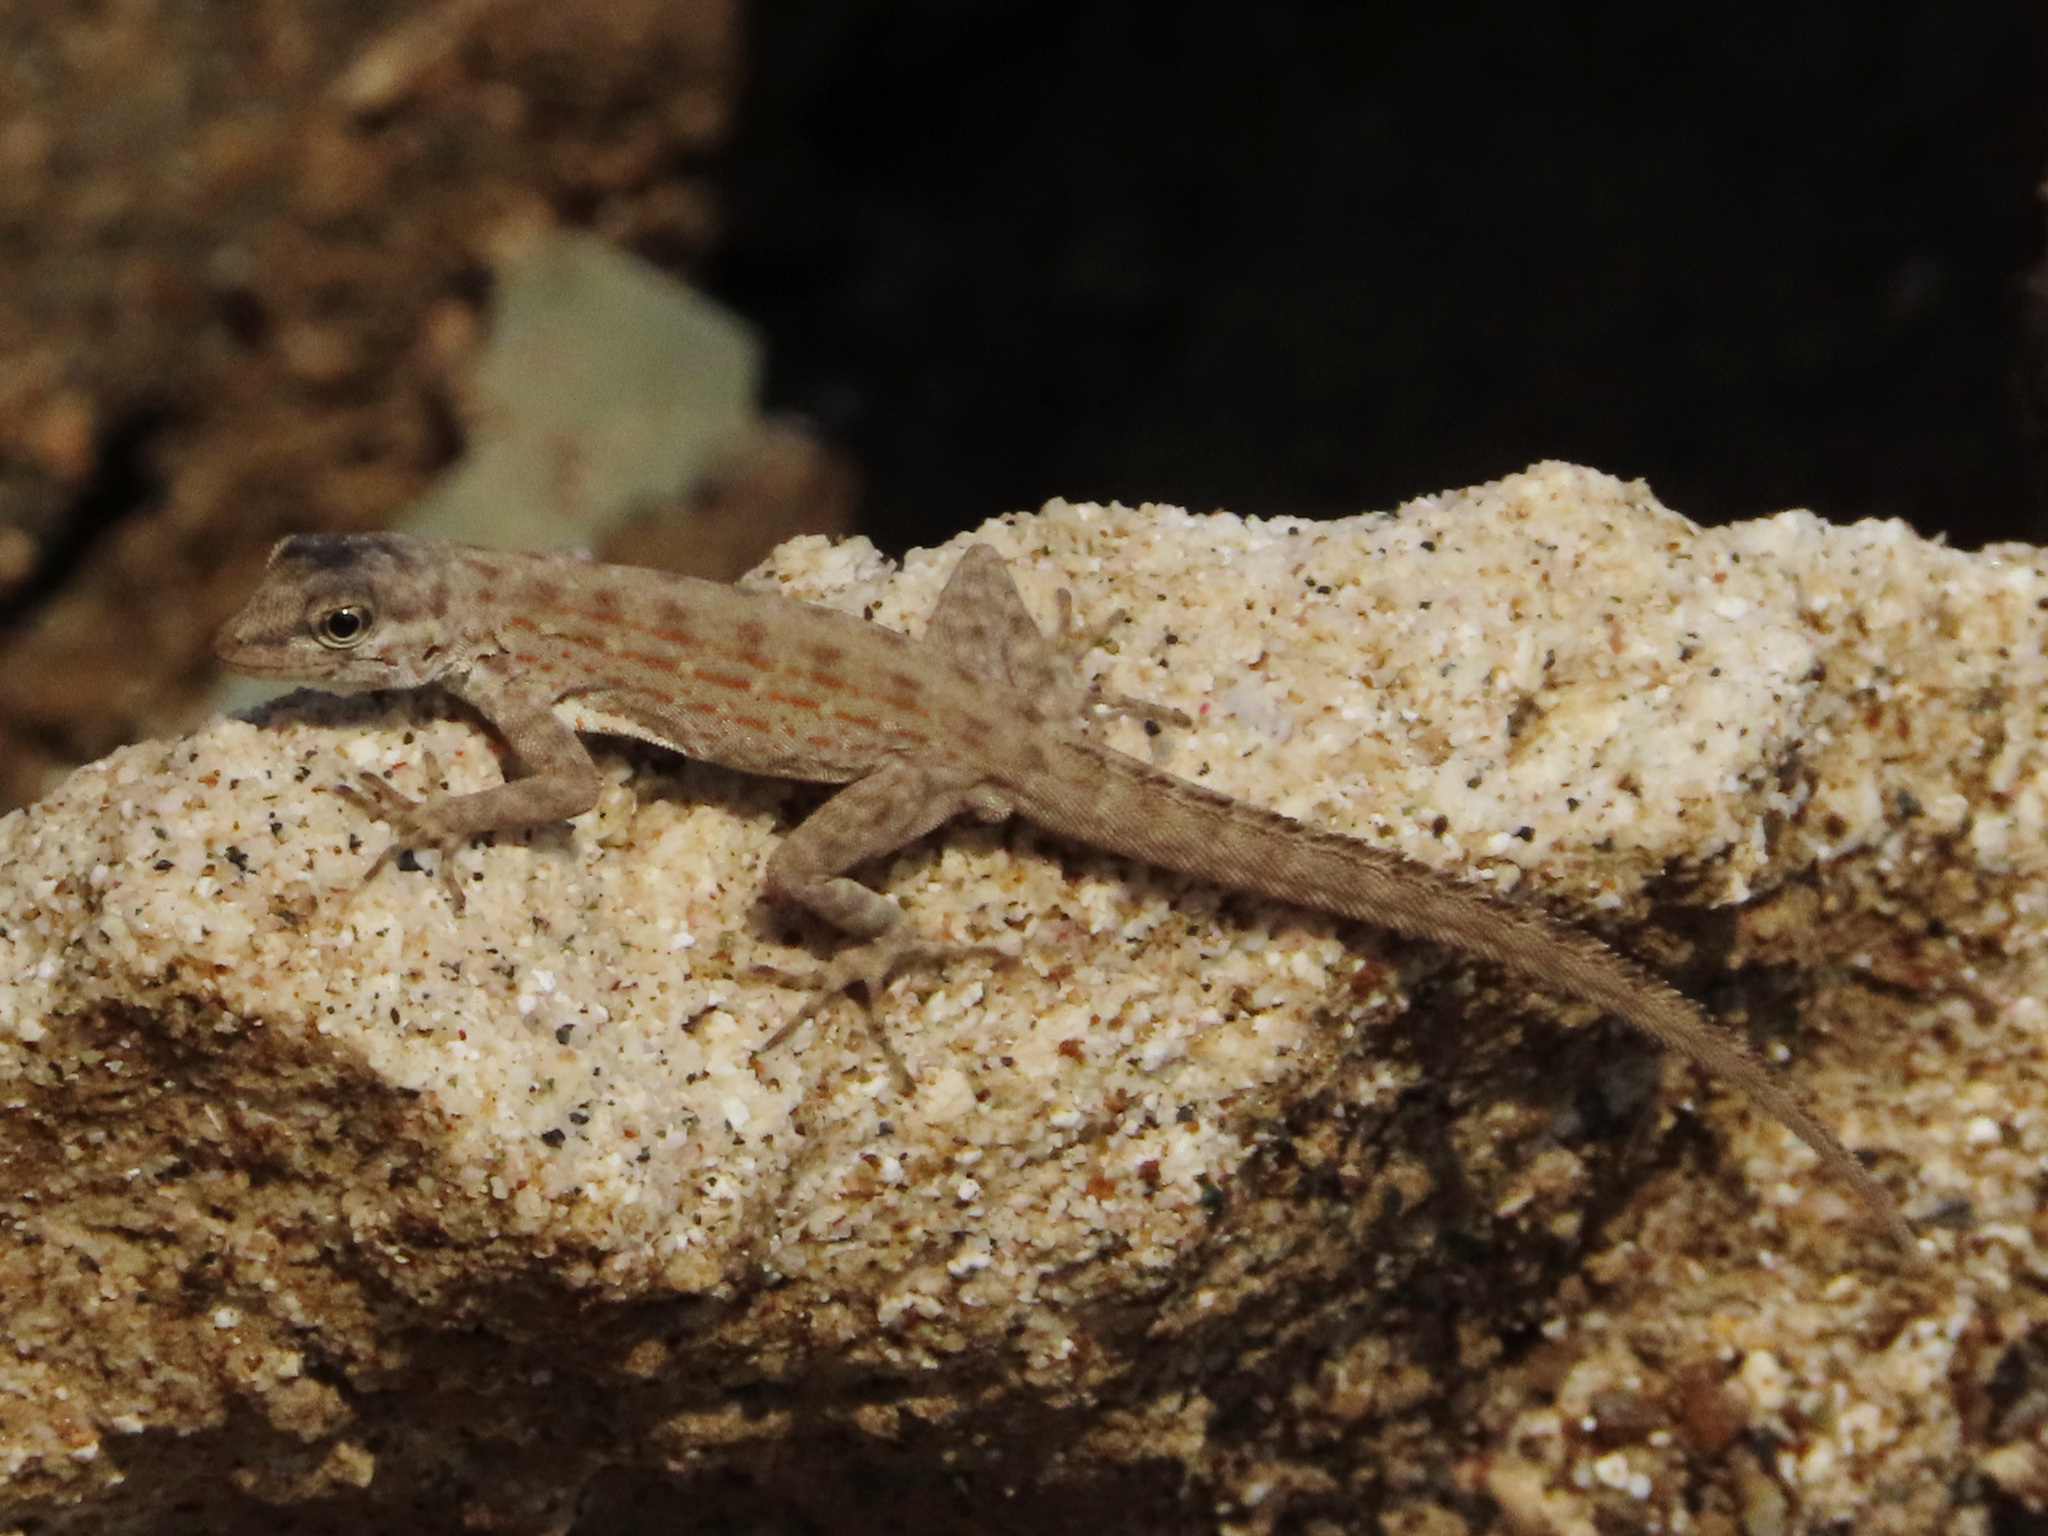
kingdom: Animalia
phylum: Chordata
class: Squamata
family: Sphaerodactylidae
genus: Pristurus
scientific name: Pristurus rupestris
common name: Blanford’s semaphore gecko
